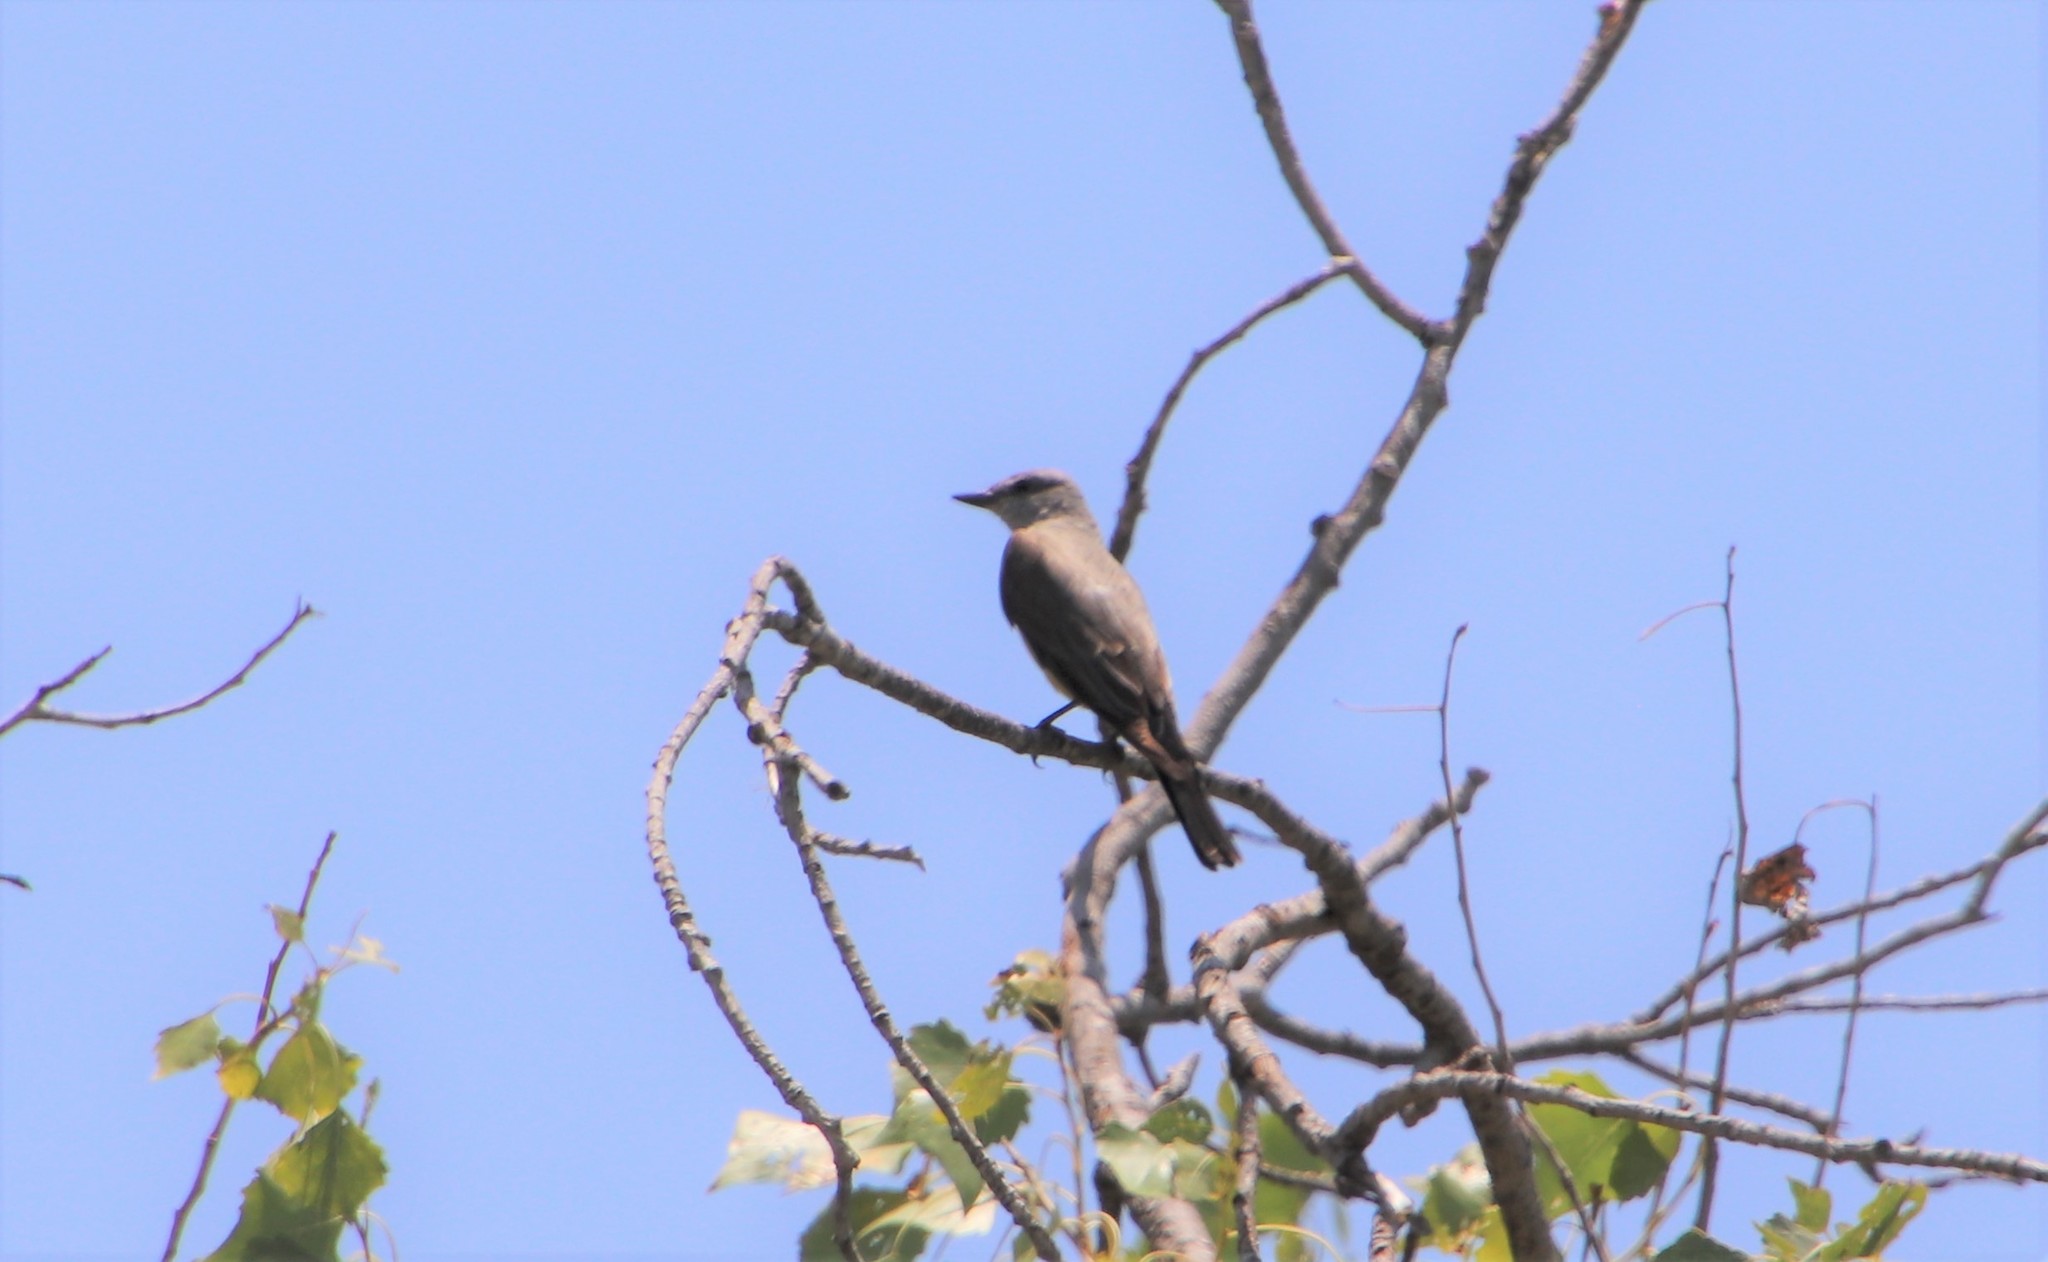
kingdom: Animalia
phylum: Chordata
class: Aves
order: Passeriformes
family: Tyrannidae
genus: Tyrannus
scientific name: Tyrannus verticalis
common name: Western kingbird
